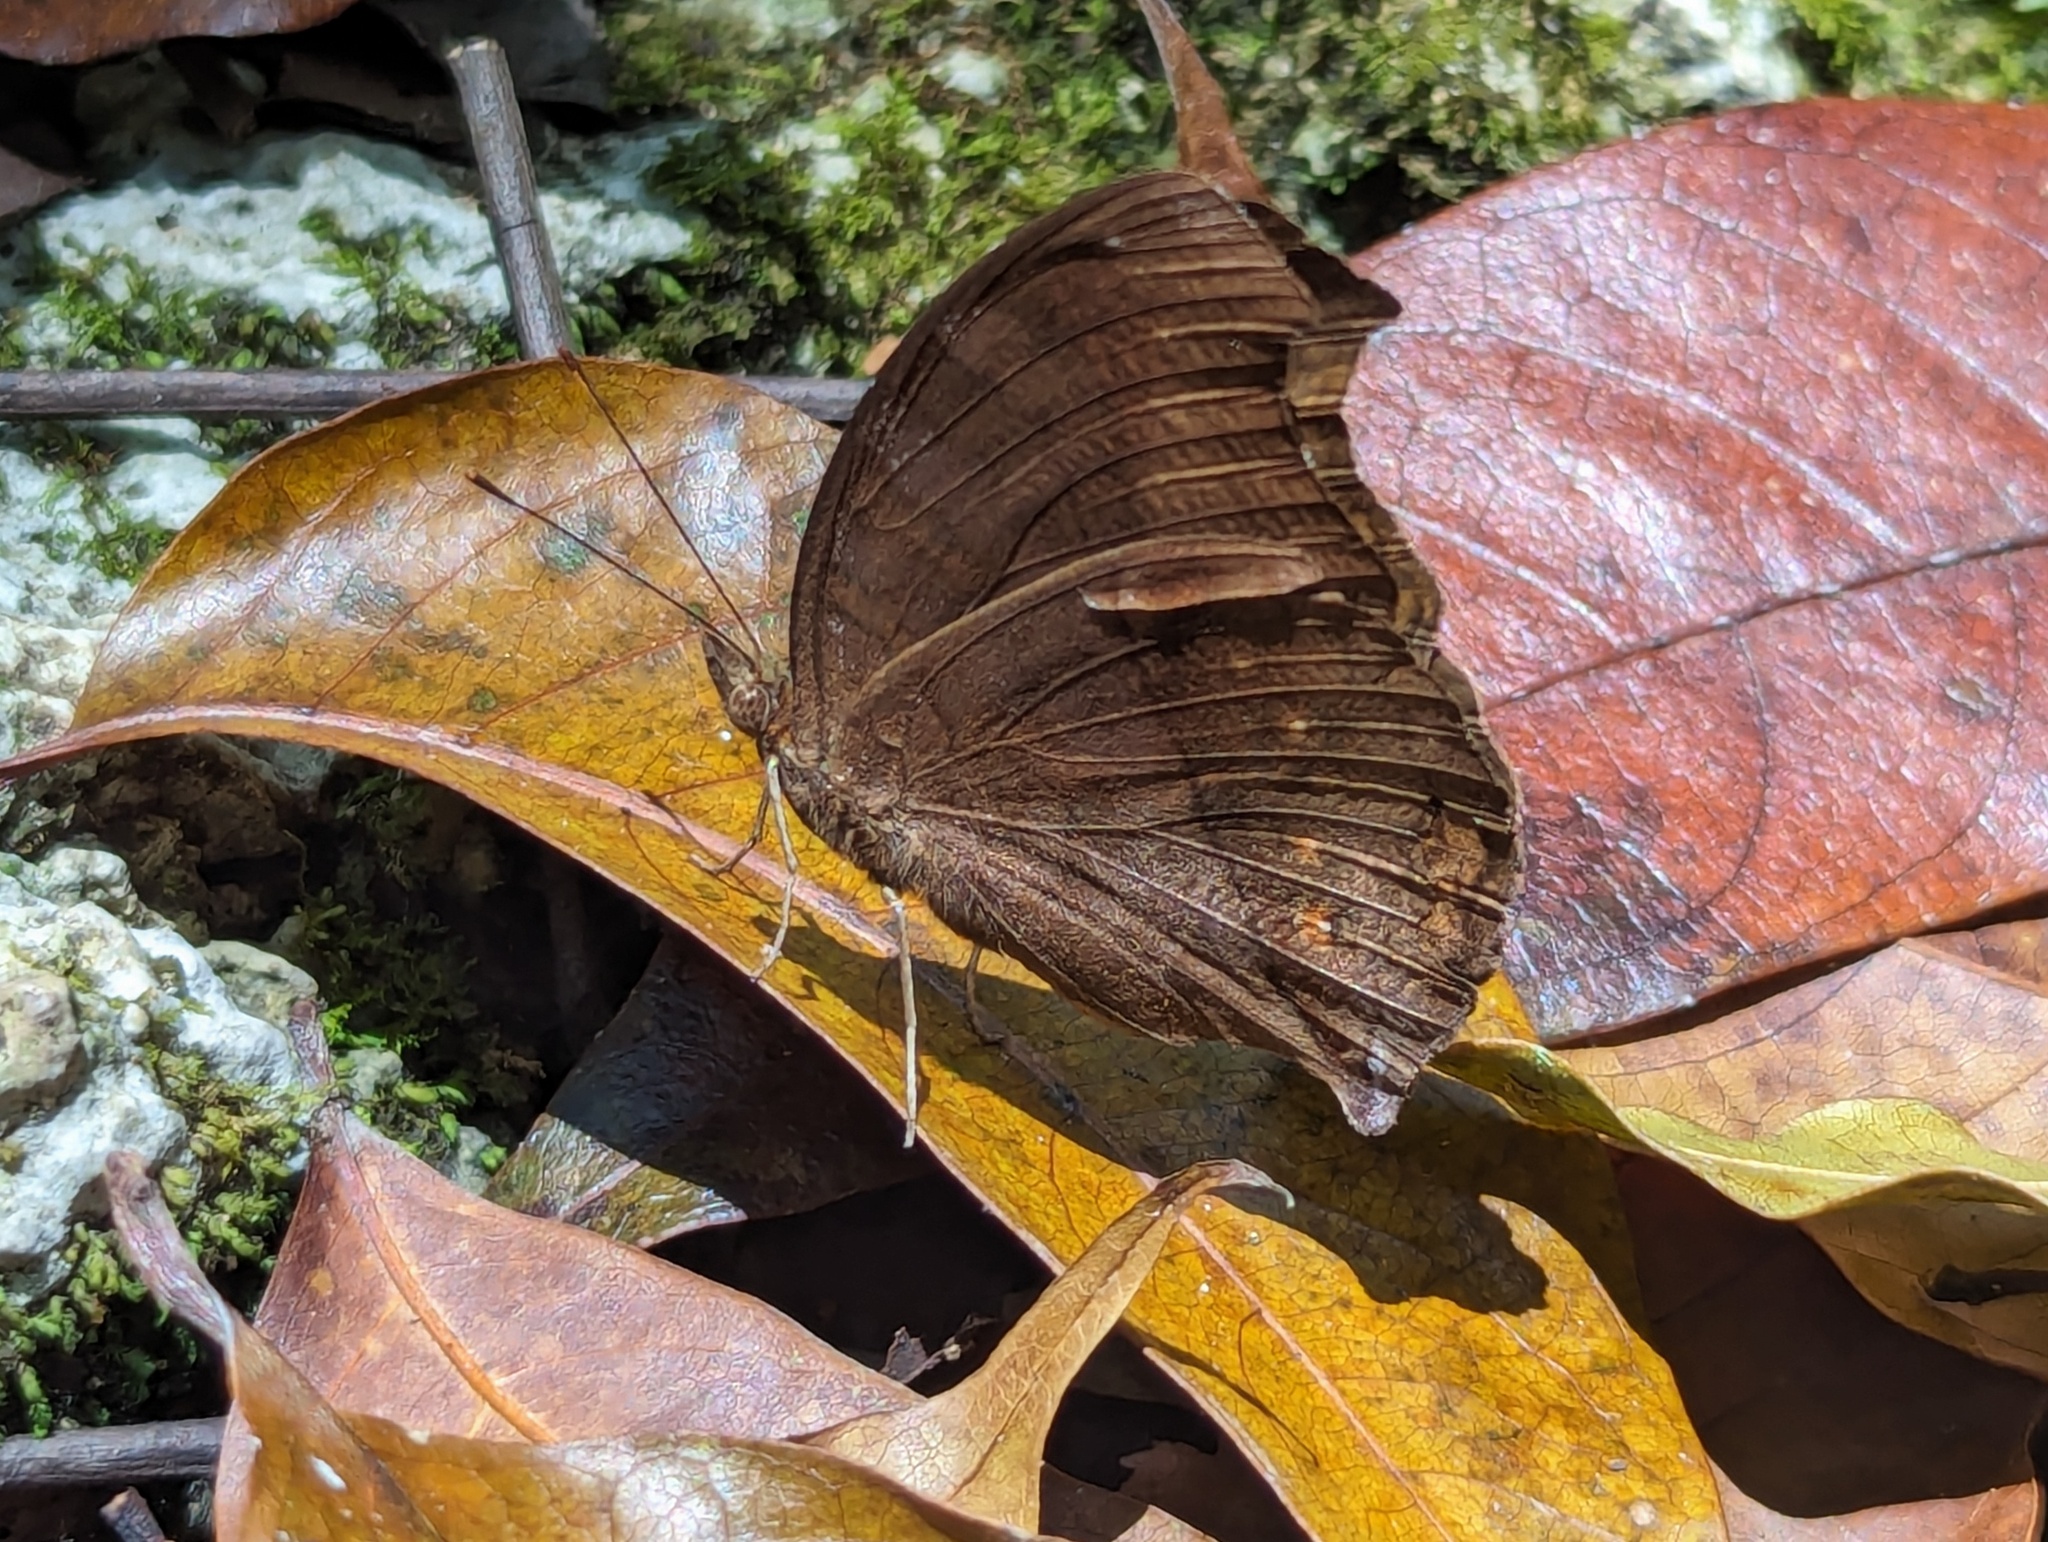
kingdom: Animalia
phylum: Arthropoda
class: Insecta
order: Lepidoptera
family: Nymphalidae
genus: Junonia
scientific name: Junonia hedonia
